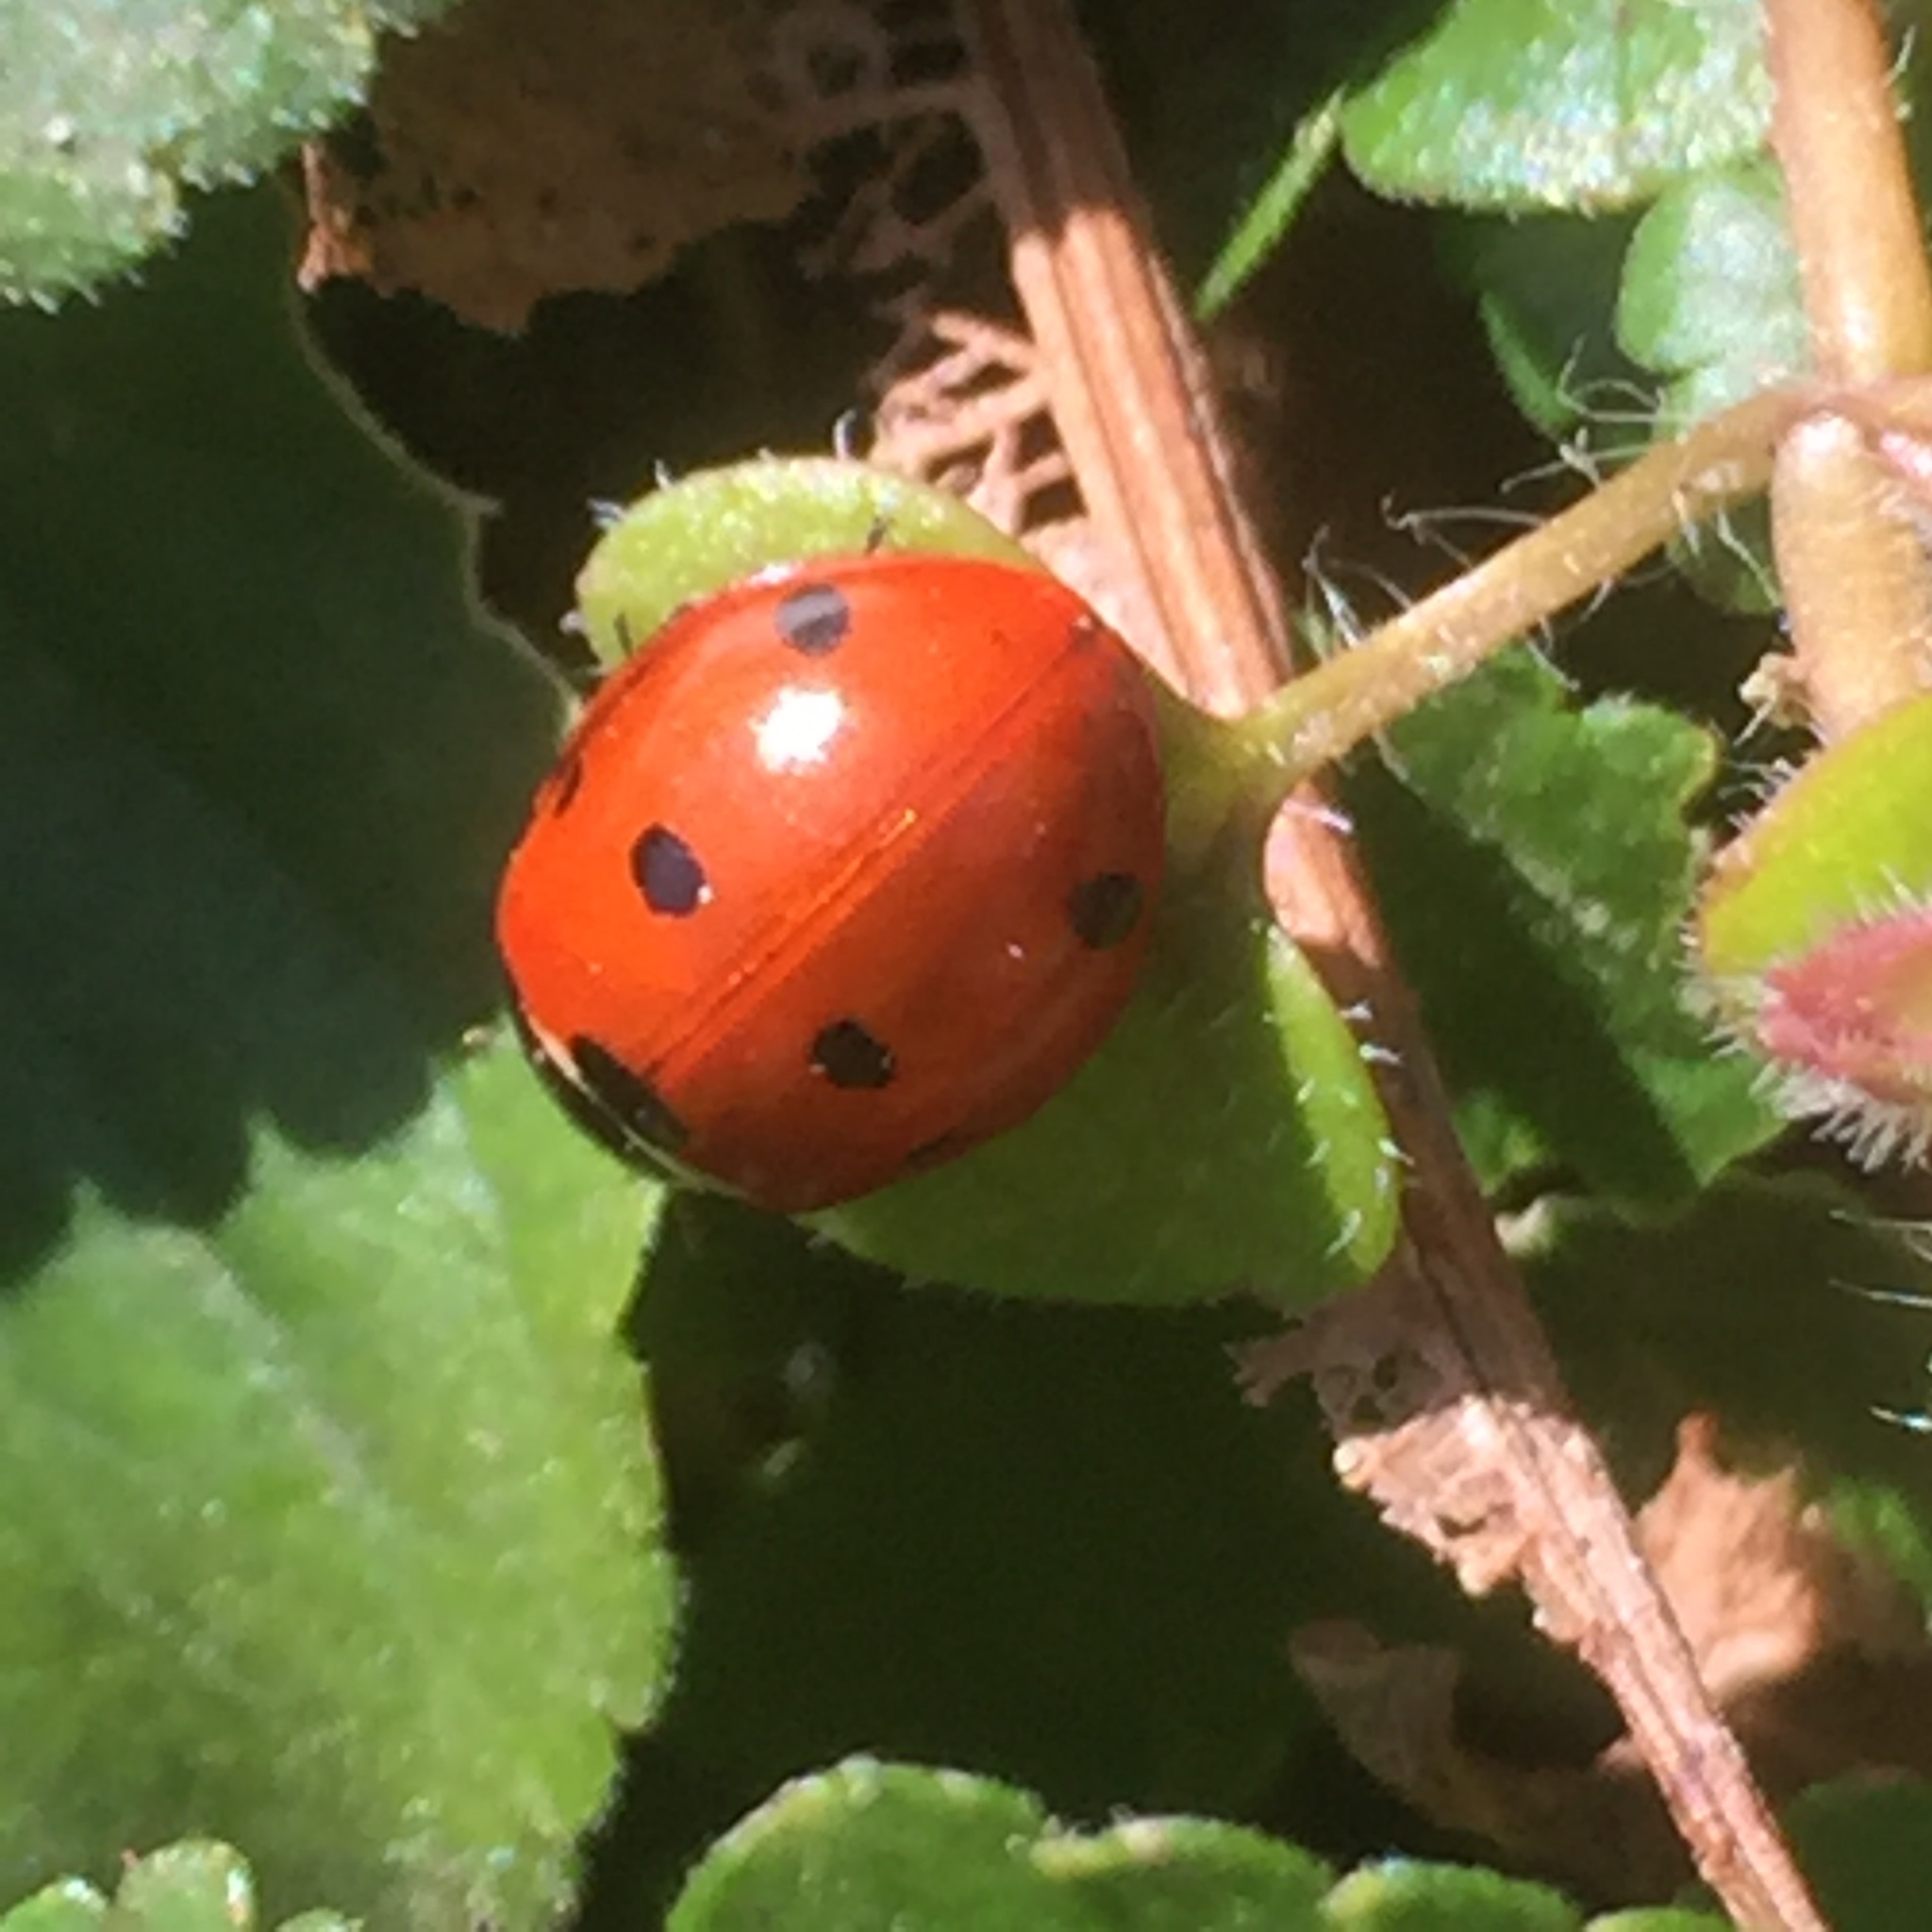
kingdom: Animalia
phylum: Arthropoda
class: Insecta
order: Coleoptera
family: Coccinellidae
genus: Coccinella
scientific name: Coccinella septempunctata
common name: Sevenspotted lady beetle
